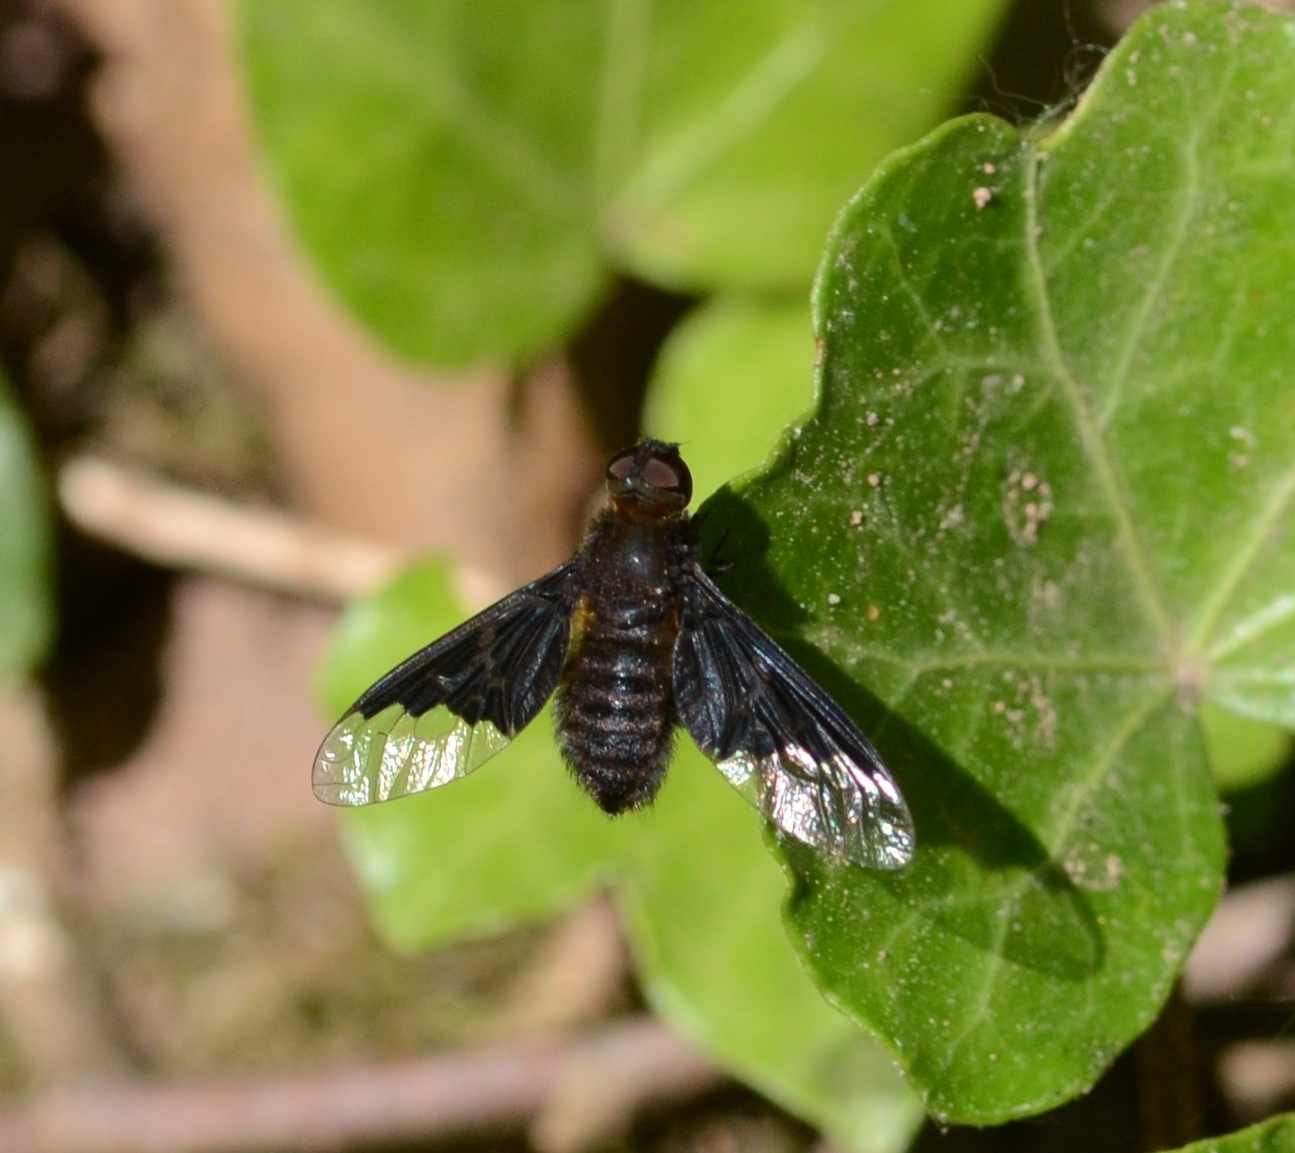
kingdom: Animalia
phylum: Arthropoda
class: Insecta
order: Diptera
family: Bombyliidae
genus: Hemipenthes
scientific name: Hemipenthes morio
